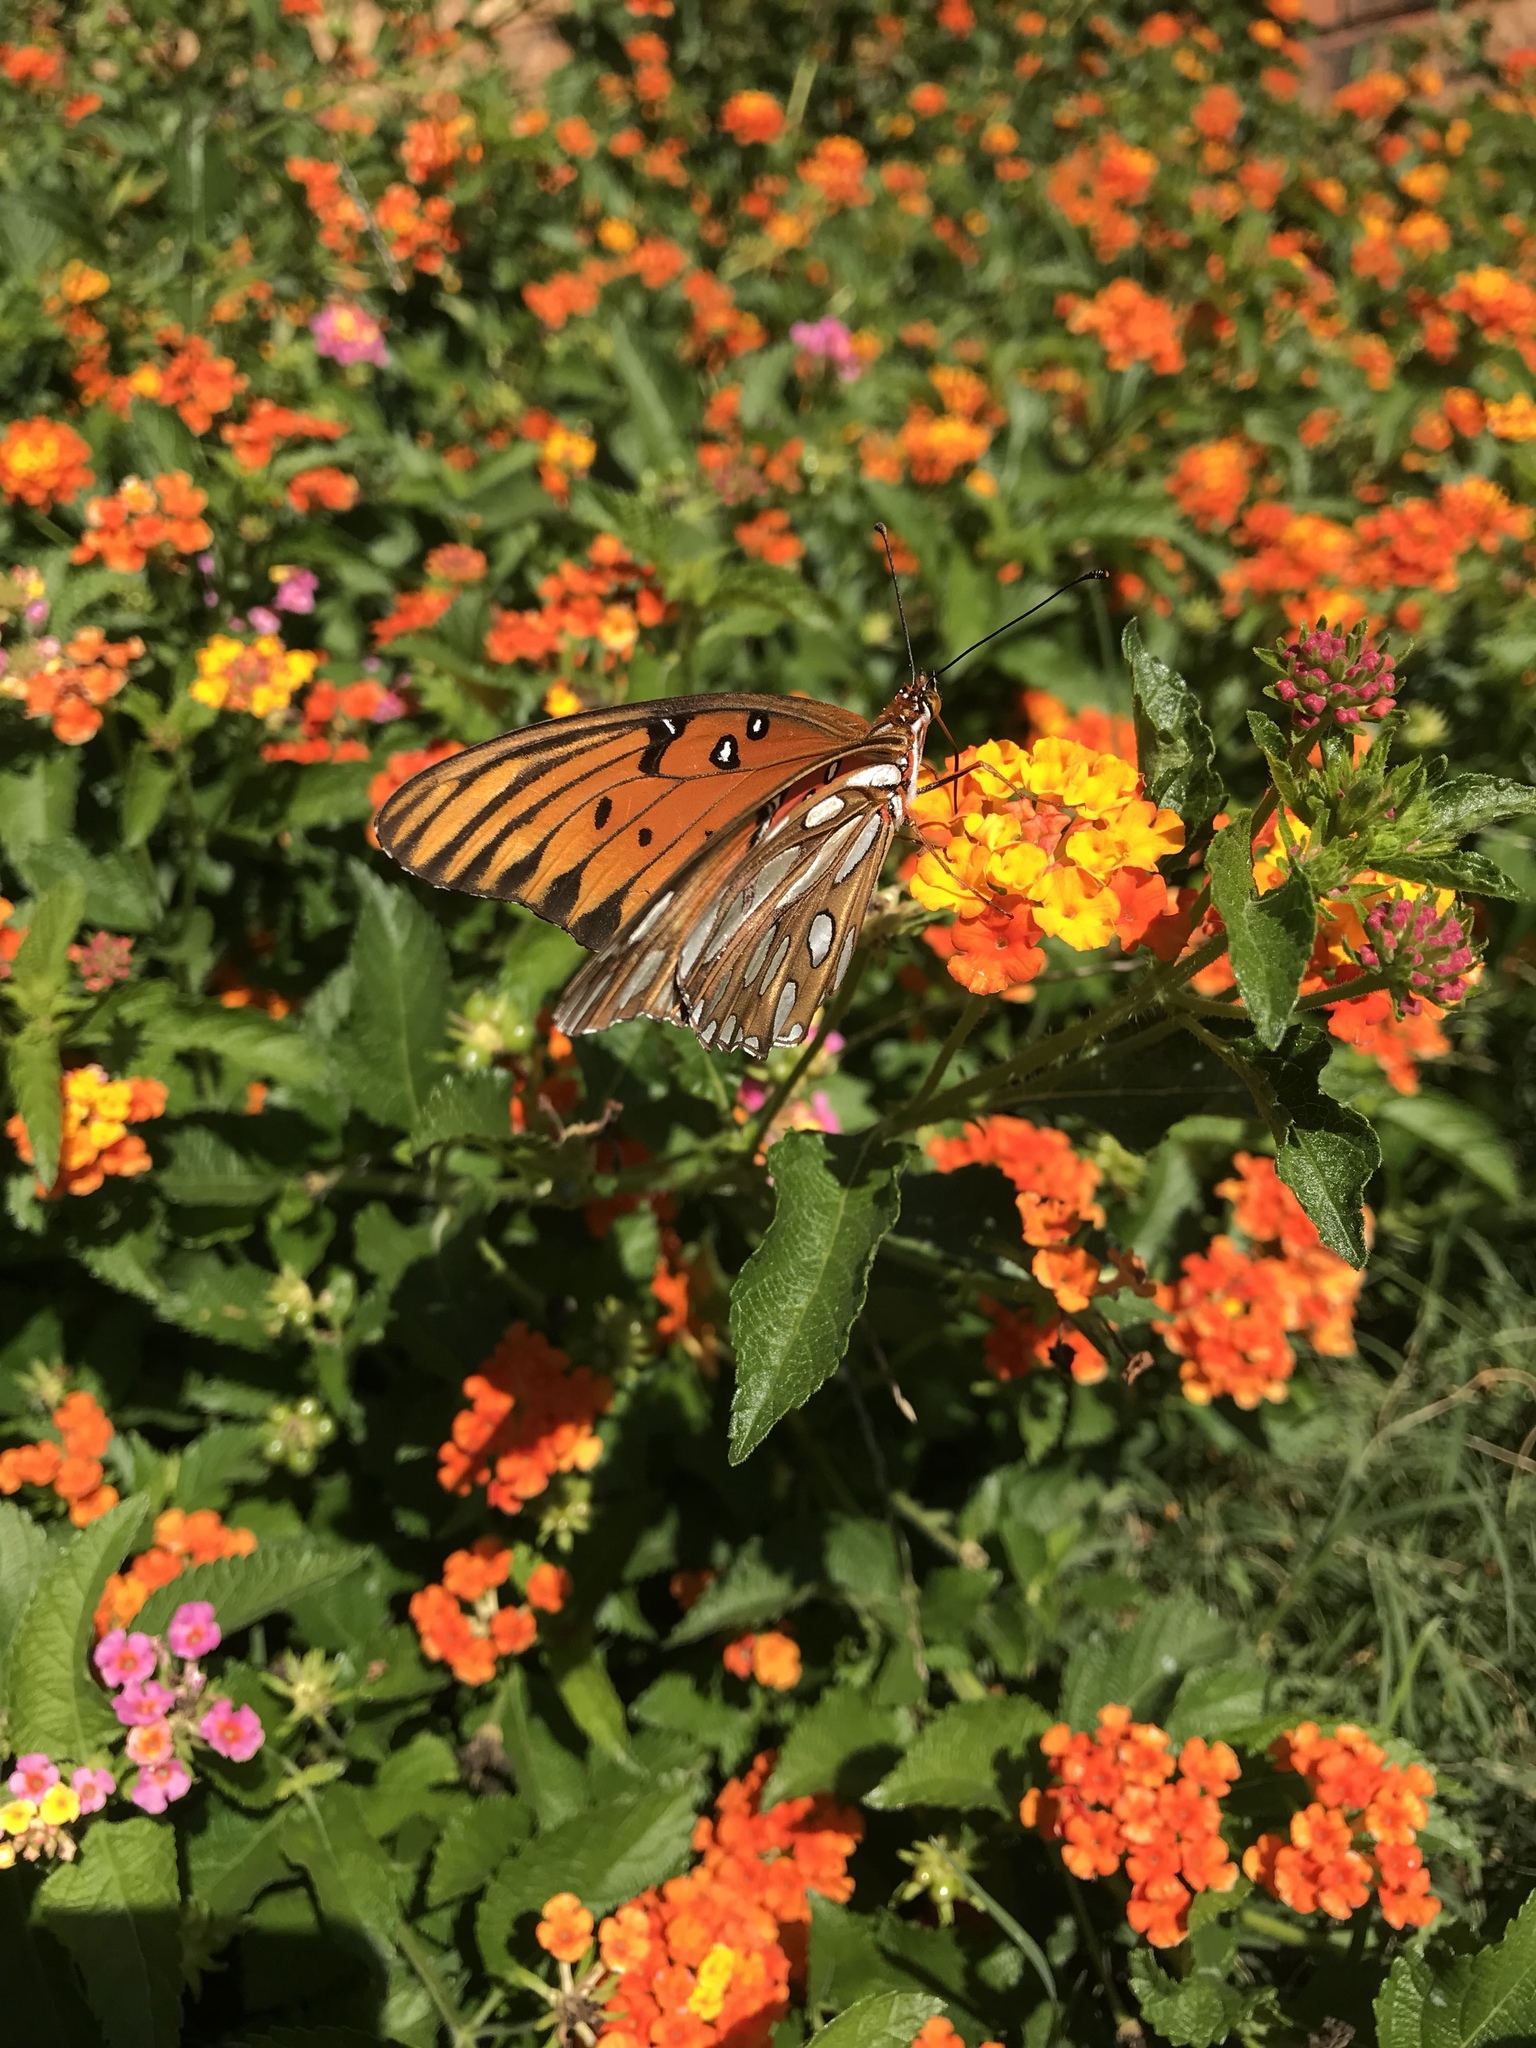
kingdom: Animalia
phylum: Arthropoda
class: Insecta
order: Lepidoptera
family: Nymphalidae
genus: Dione
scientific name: Dione vanillae
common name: Gulf fritillary
